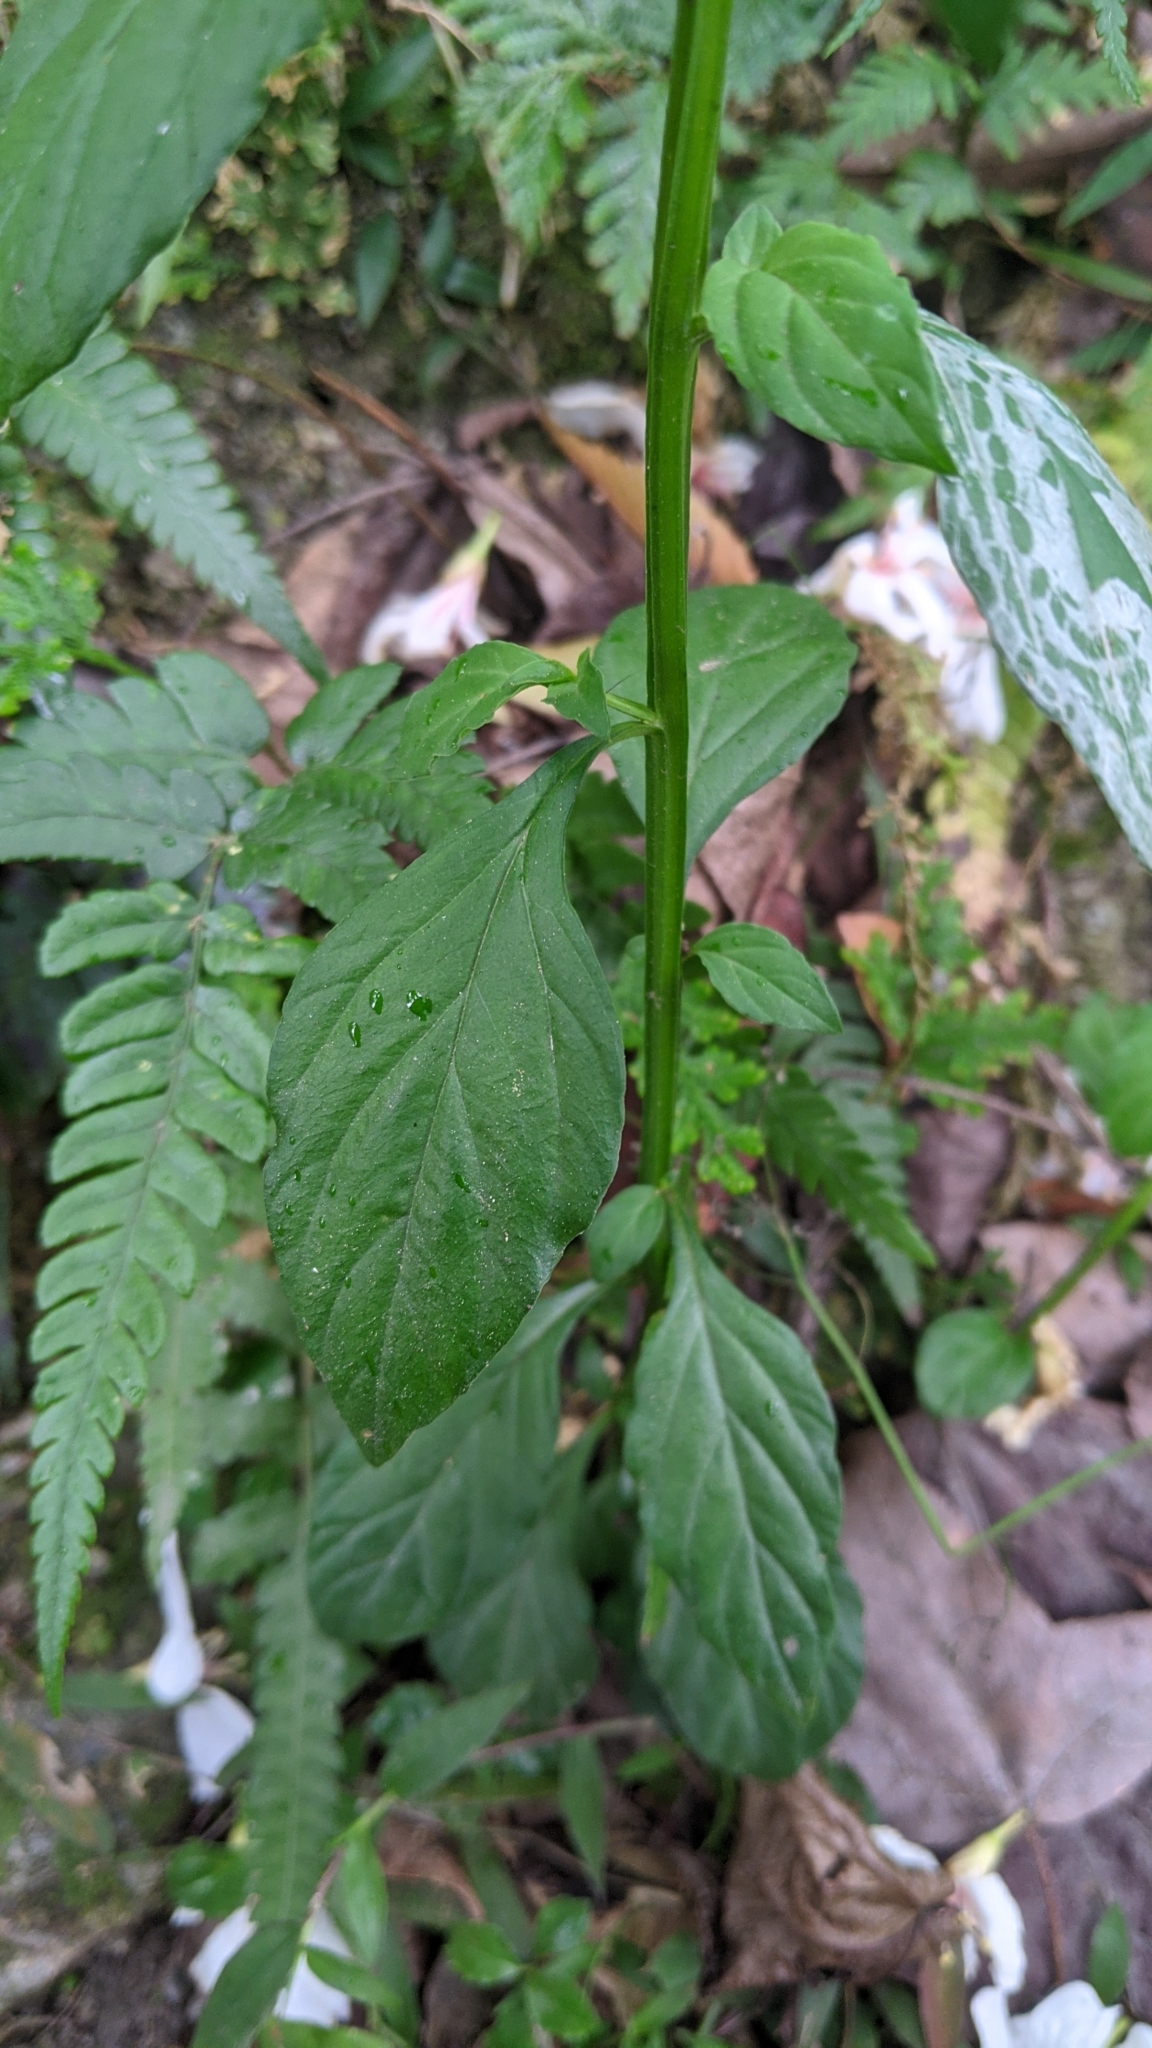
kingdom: Plantae
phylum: Tracheophyta
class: Magnoliopsida
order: Lamiales
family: Plantaginaceae
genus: Veronicastrum
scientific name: Veronicastrum loshanense
